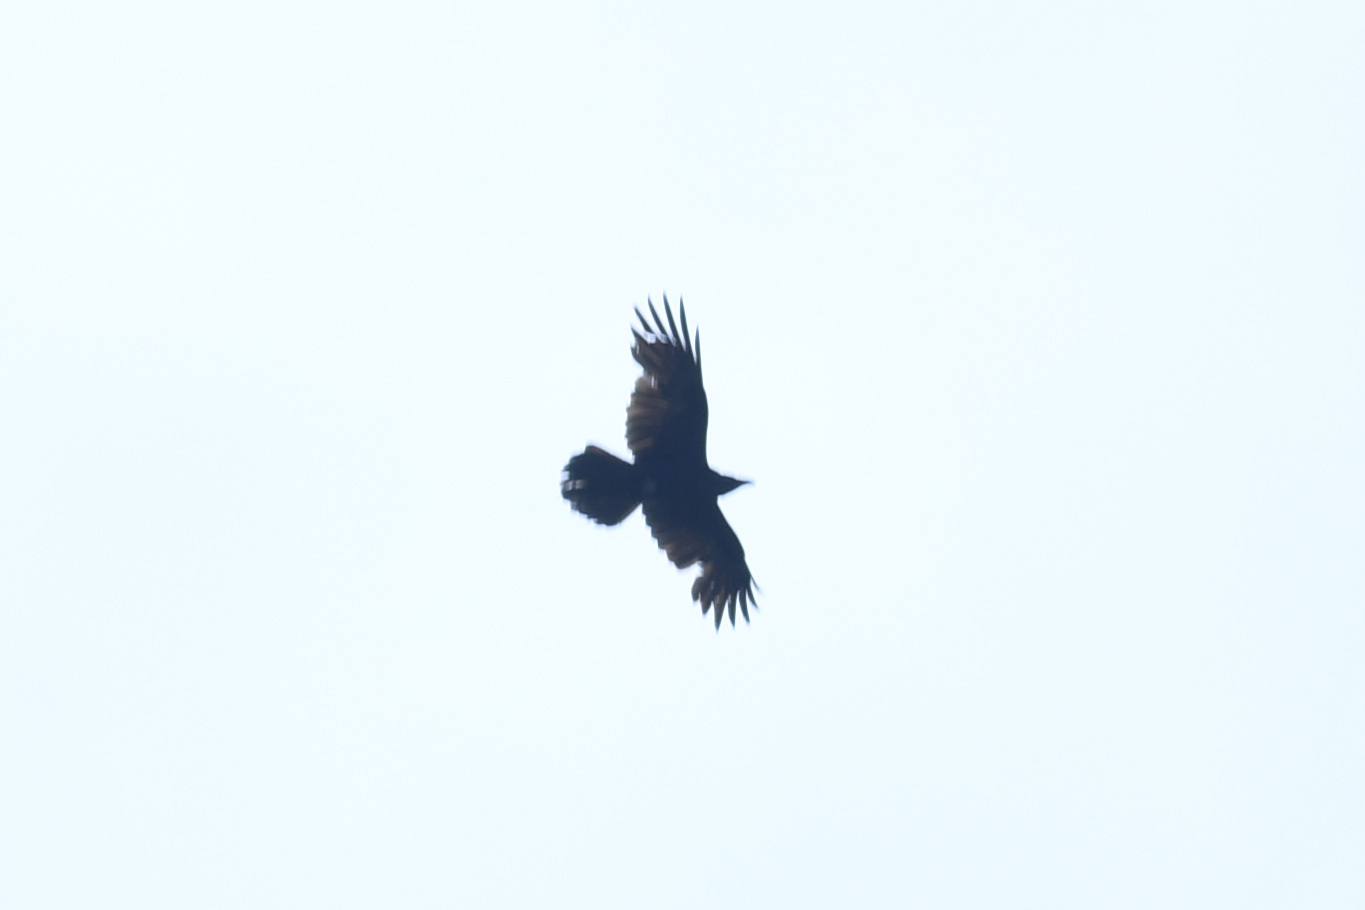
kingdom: Animalia
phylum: Chordata
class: Aves
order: Passeriformes
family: Corvidae
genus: Corvus
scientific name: Corvus corax
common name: Common raven
